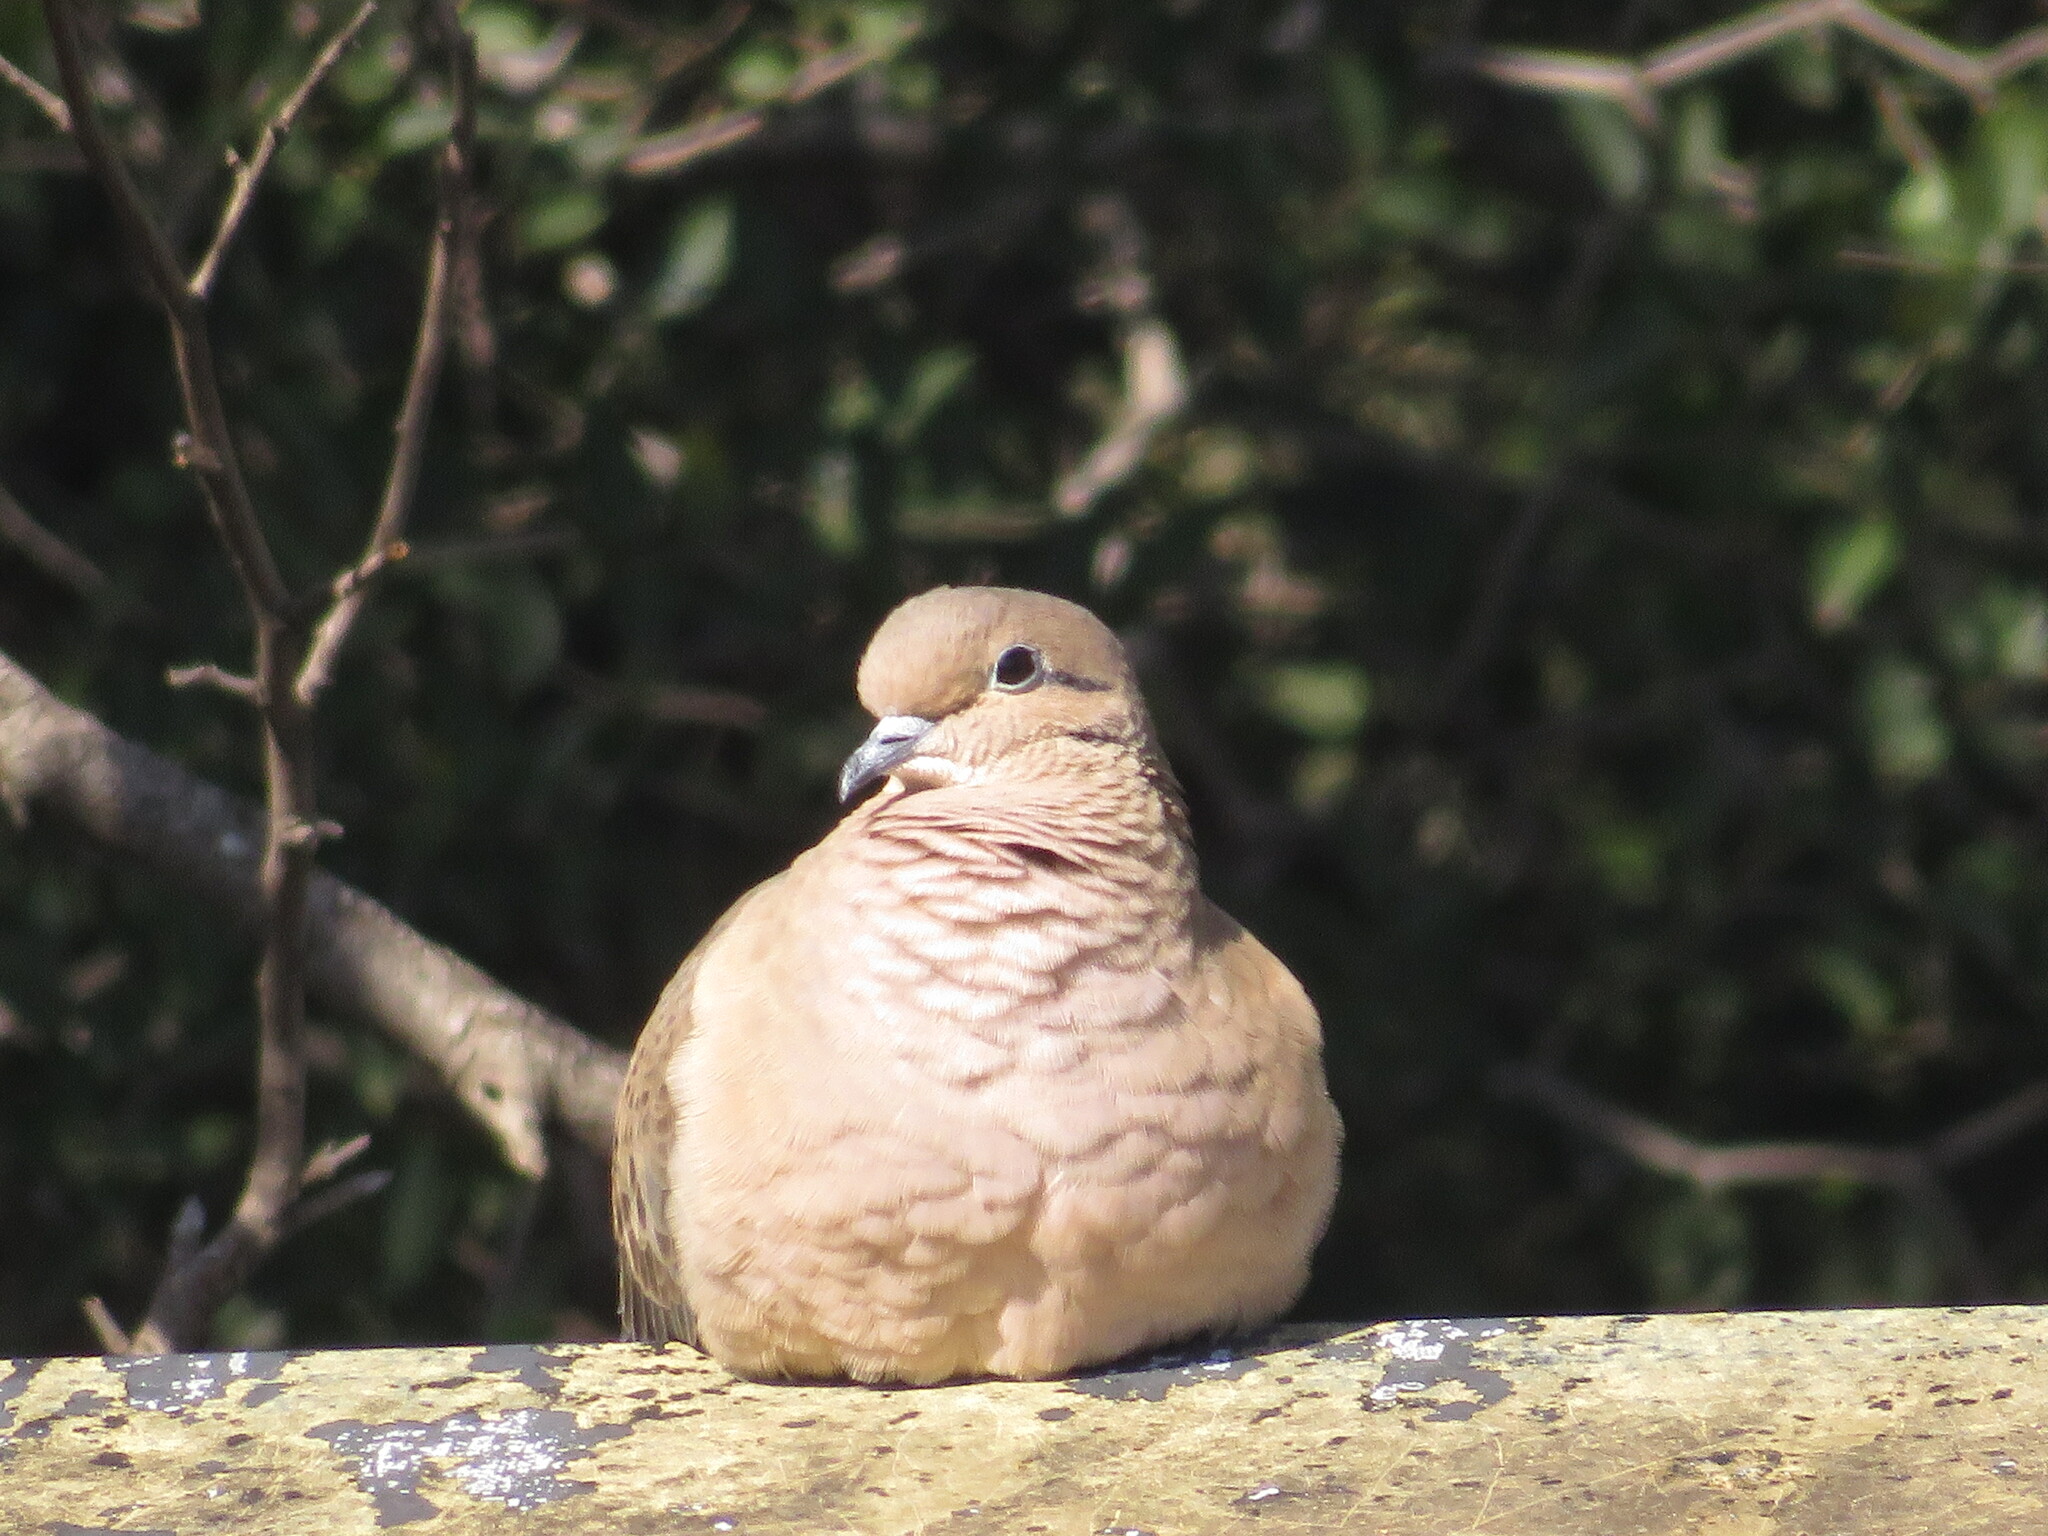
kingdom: Animalia
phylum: Chordata
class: Aves
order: Columbiformes
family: Columbidae
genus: Zenaida
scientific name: Zenaida auriculata
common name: Eared dove
